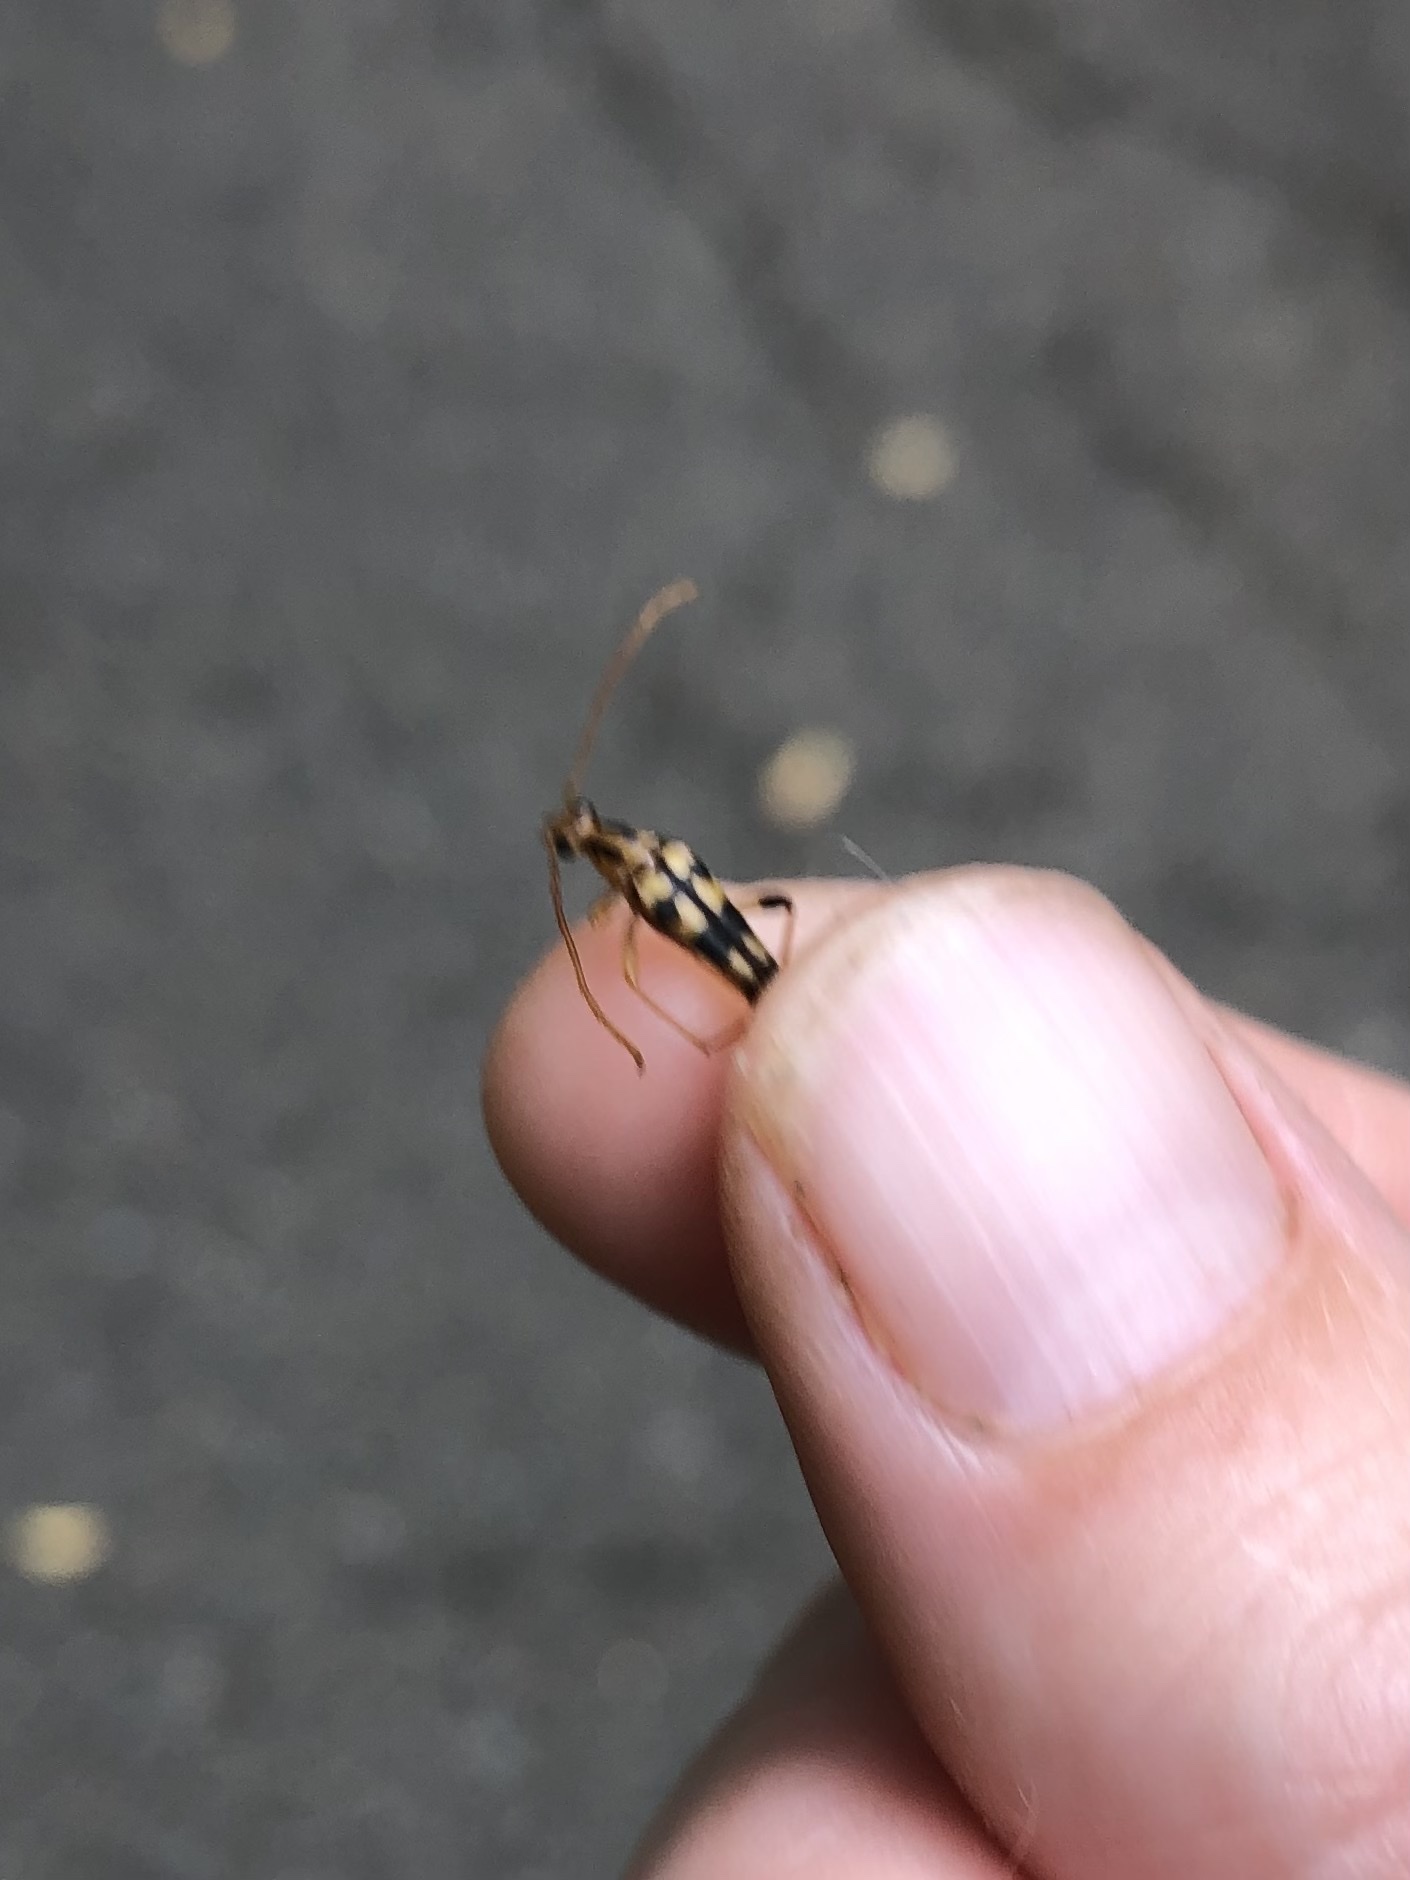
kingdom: Animalia
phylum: Arthropoda
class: Insecta
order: Coleoptera
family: Cerambycidae
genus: Strangalia
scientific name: Strangalia luteicornis
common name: Yellow-horned flower longhorn beetle
